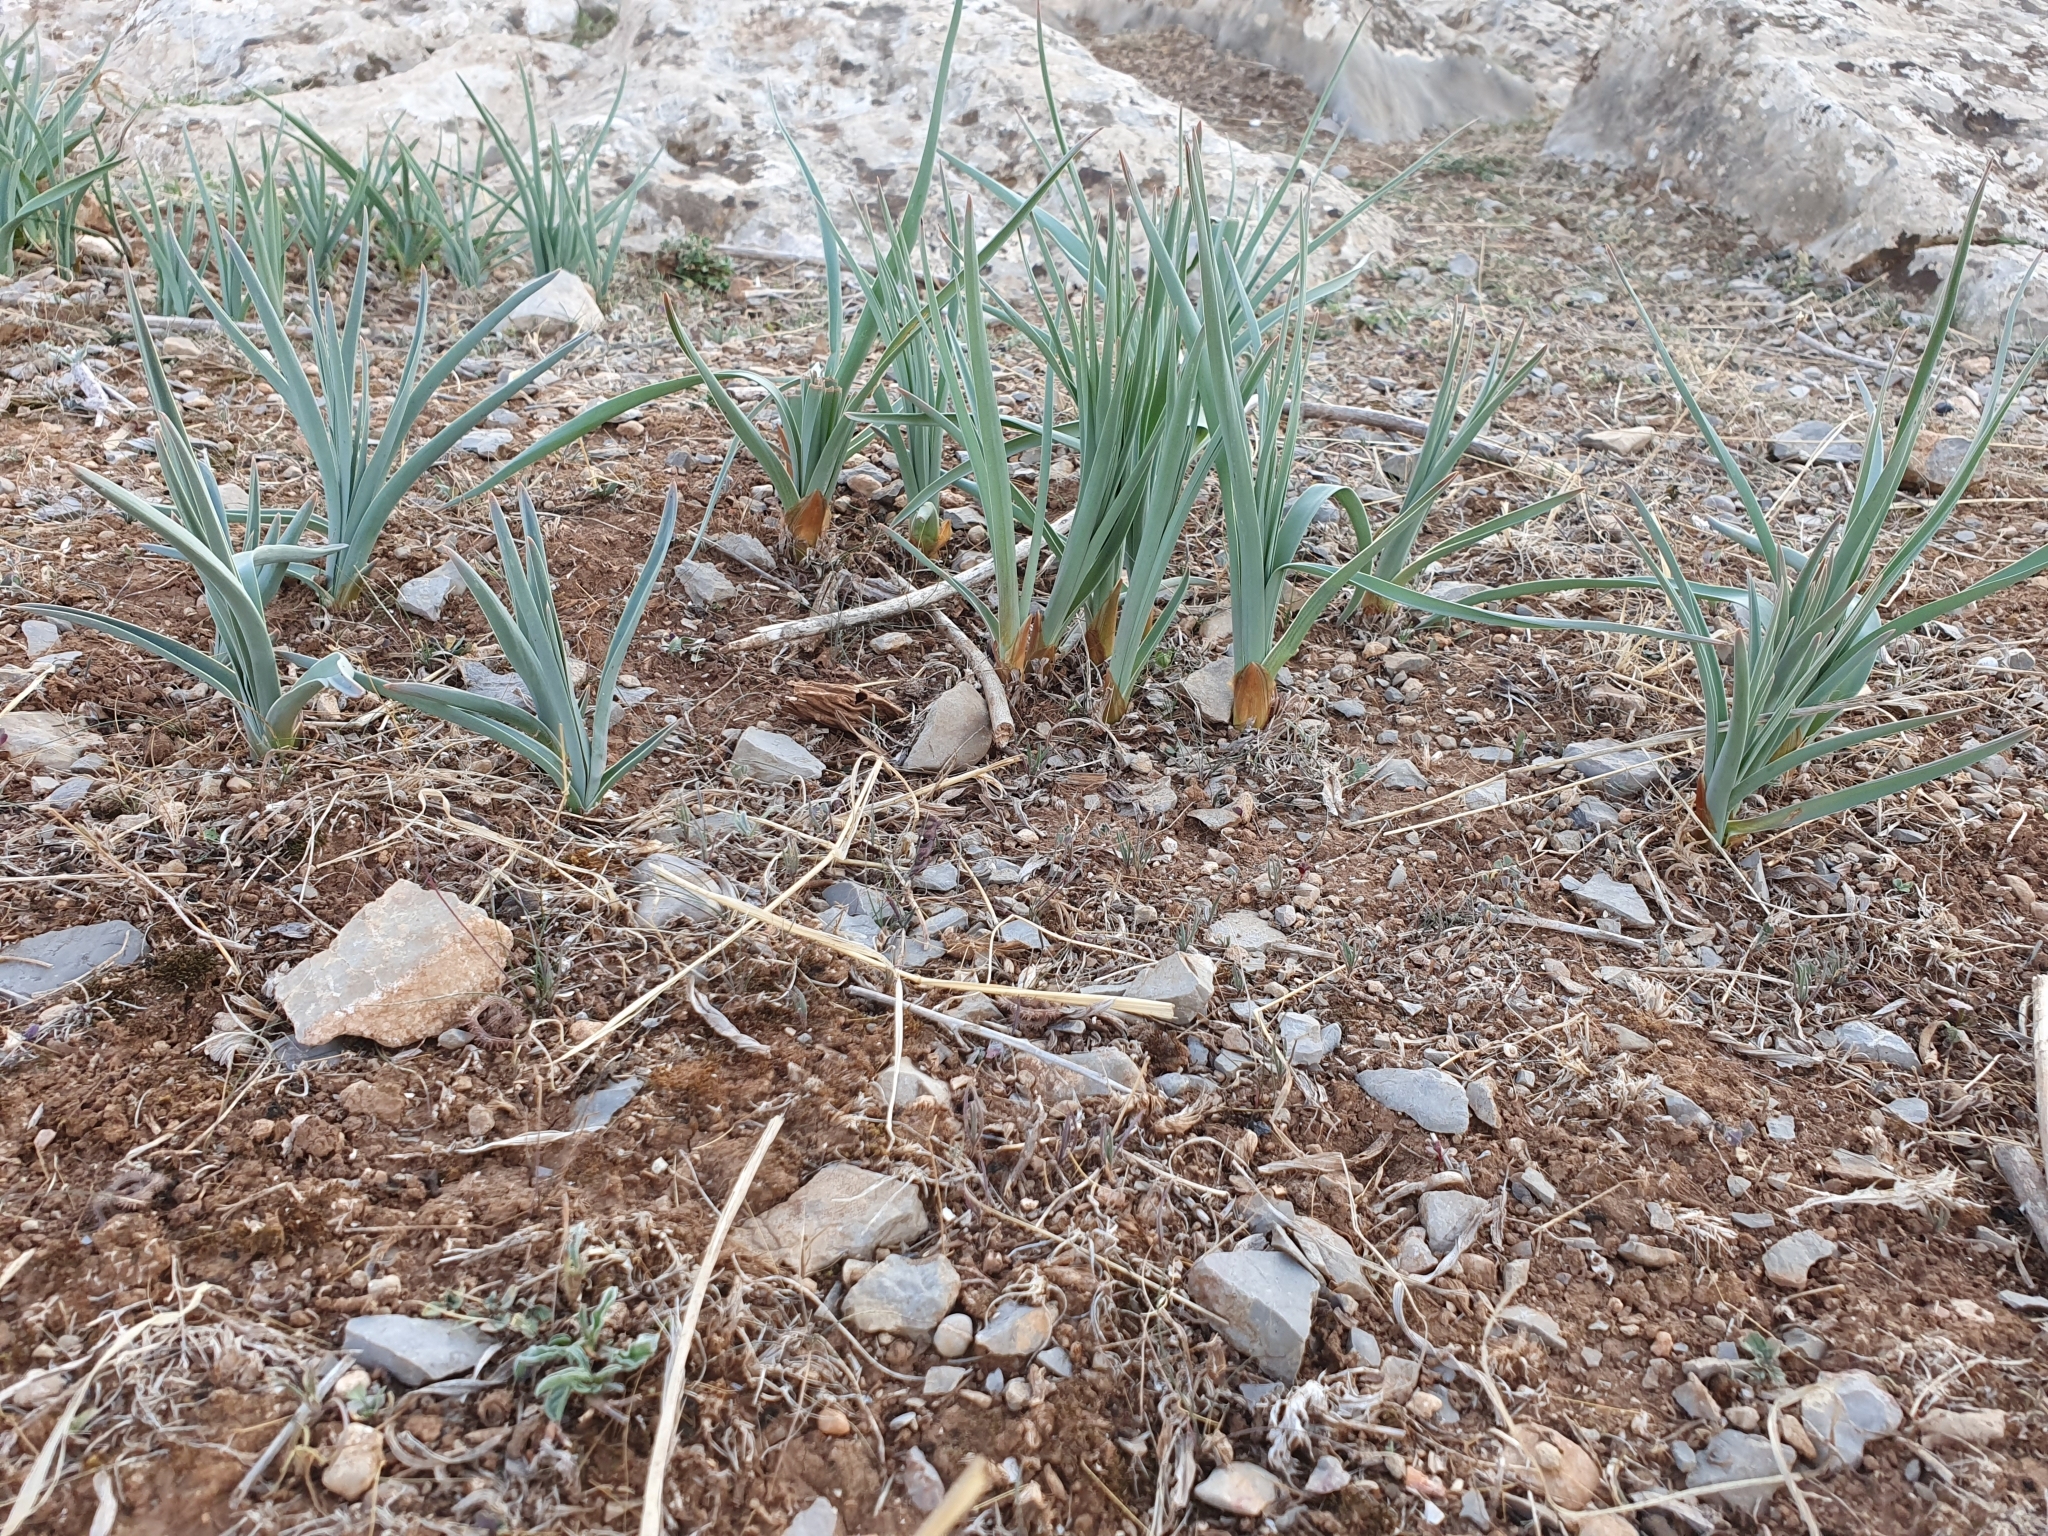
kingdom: Plantae
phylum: Tracheophyta
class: Liliopsida
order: Asparagales
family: Asphodelaceae
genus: Asphodelus
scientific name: Asphodelus ramosus
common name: Silverrod
